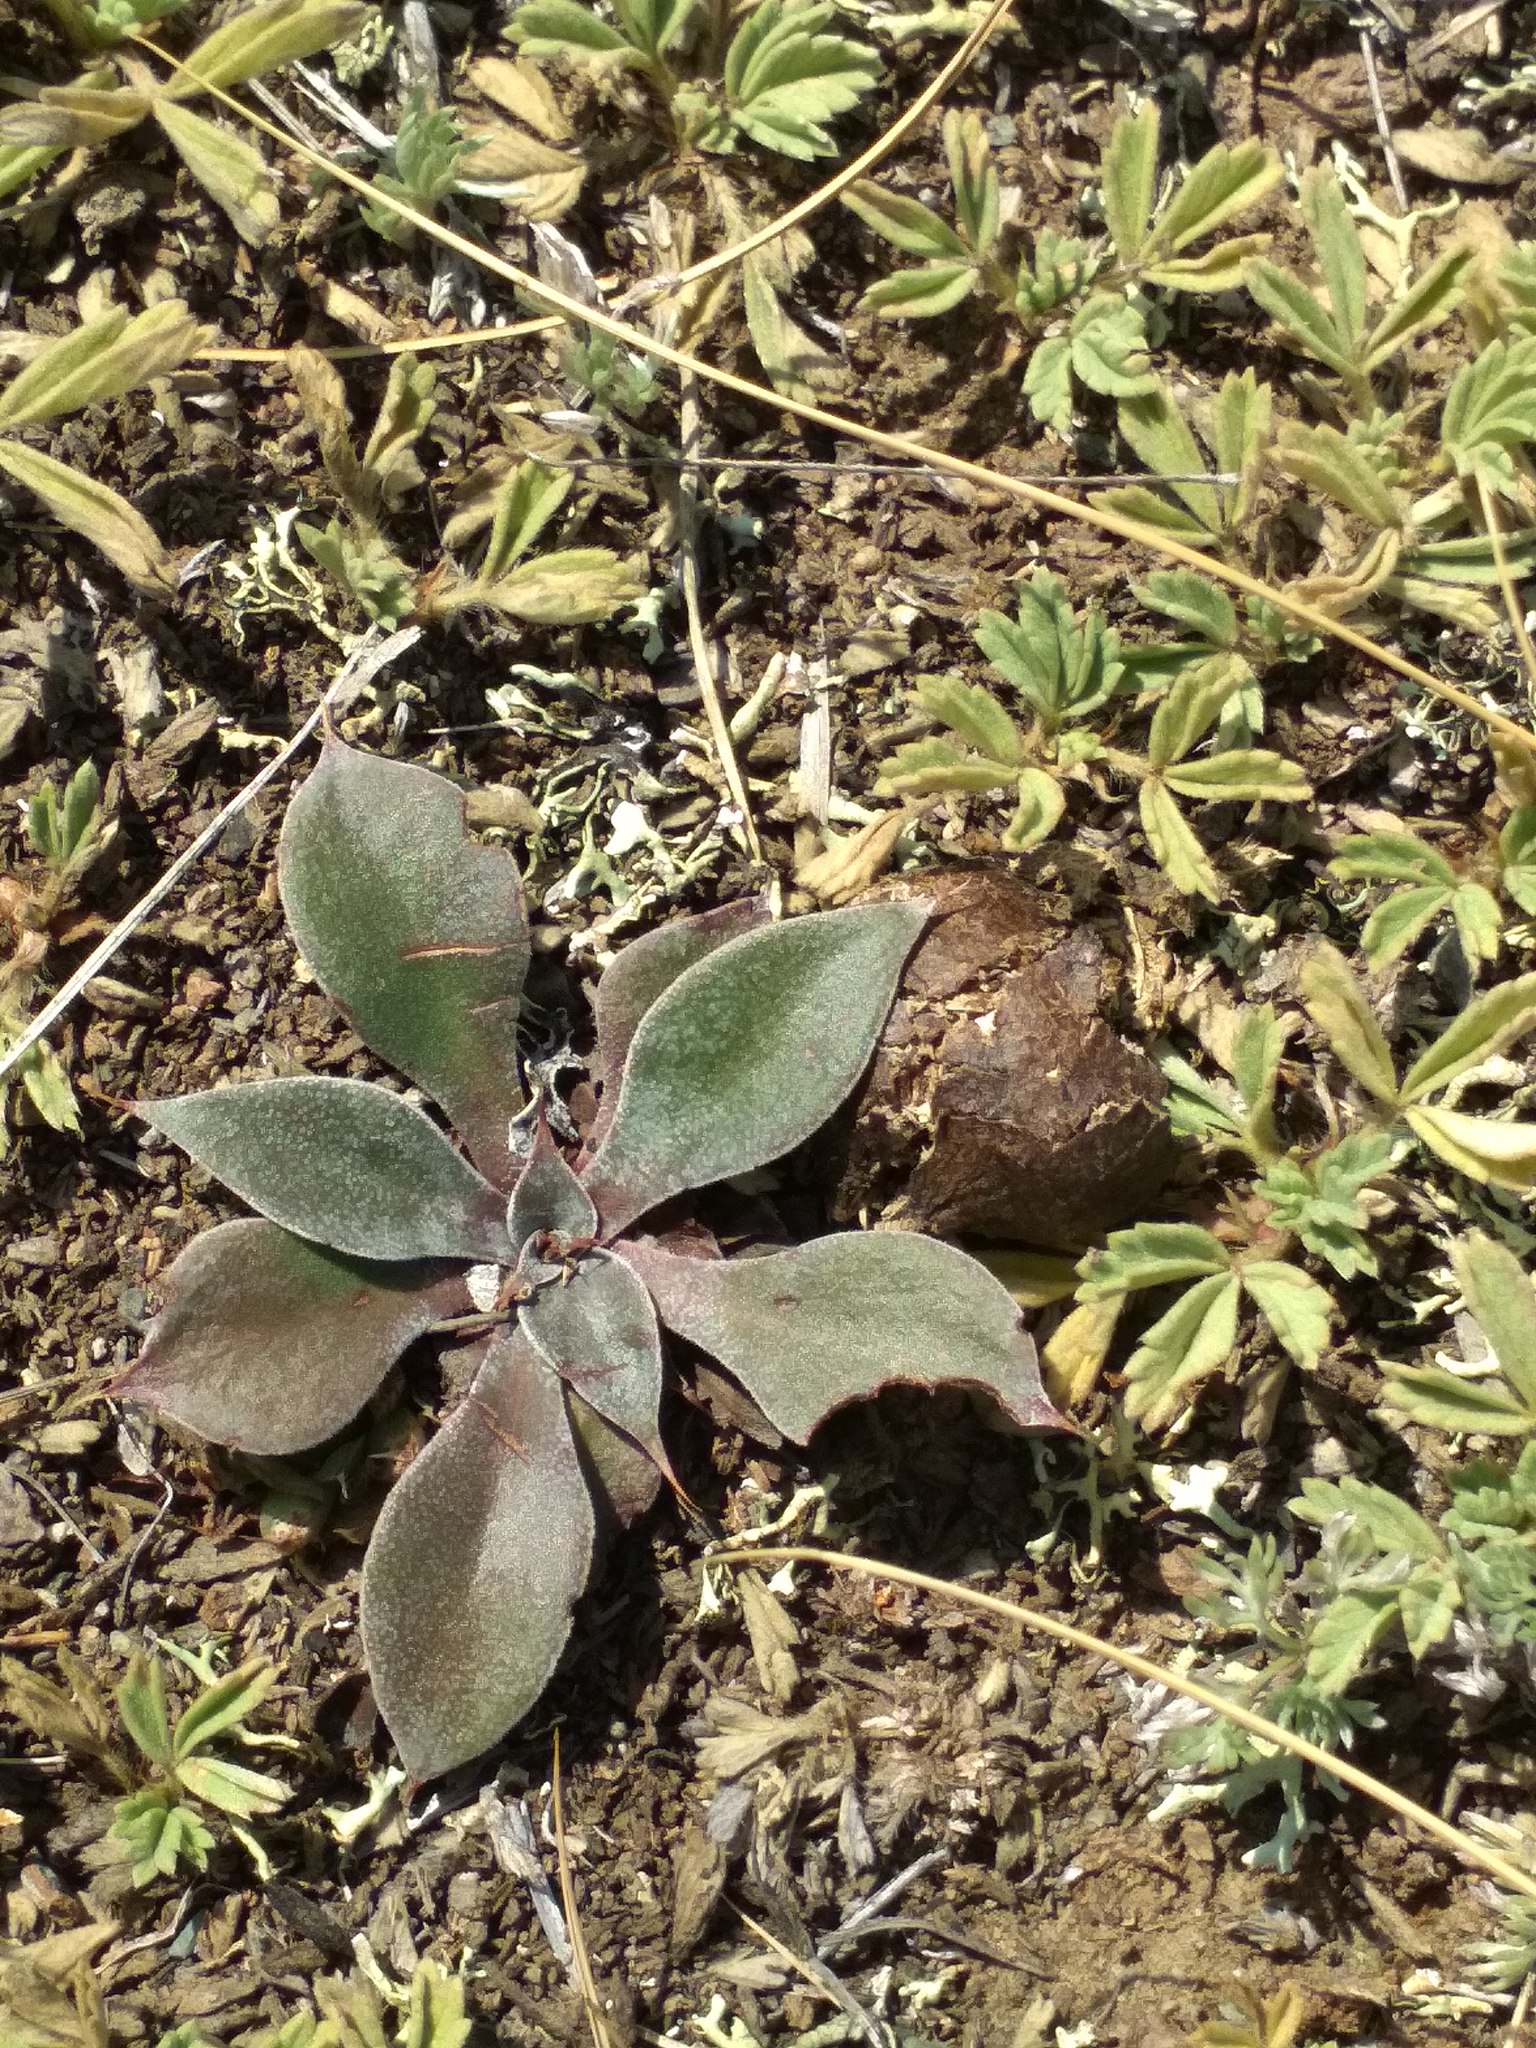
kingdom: Plantae
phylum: Tracheophyta
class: Magnoliopsida
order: Caryophyllales
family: Plumbaginaceae
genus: Goniolimon
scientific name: Goniolimon speciosum
